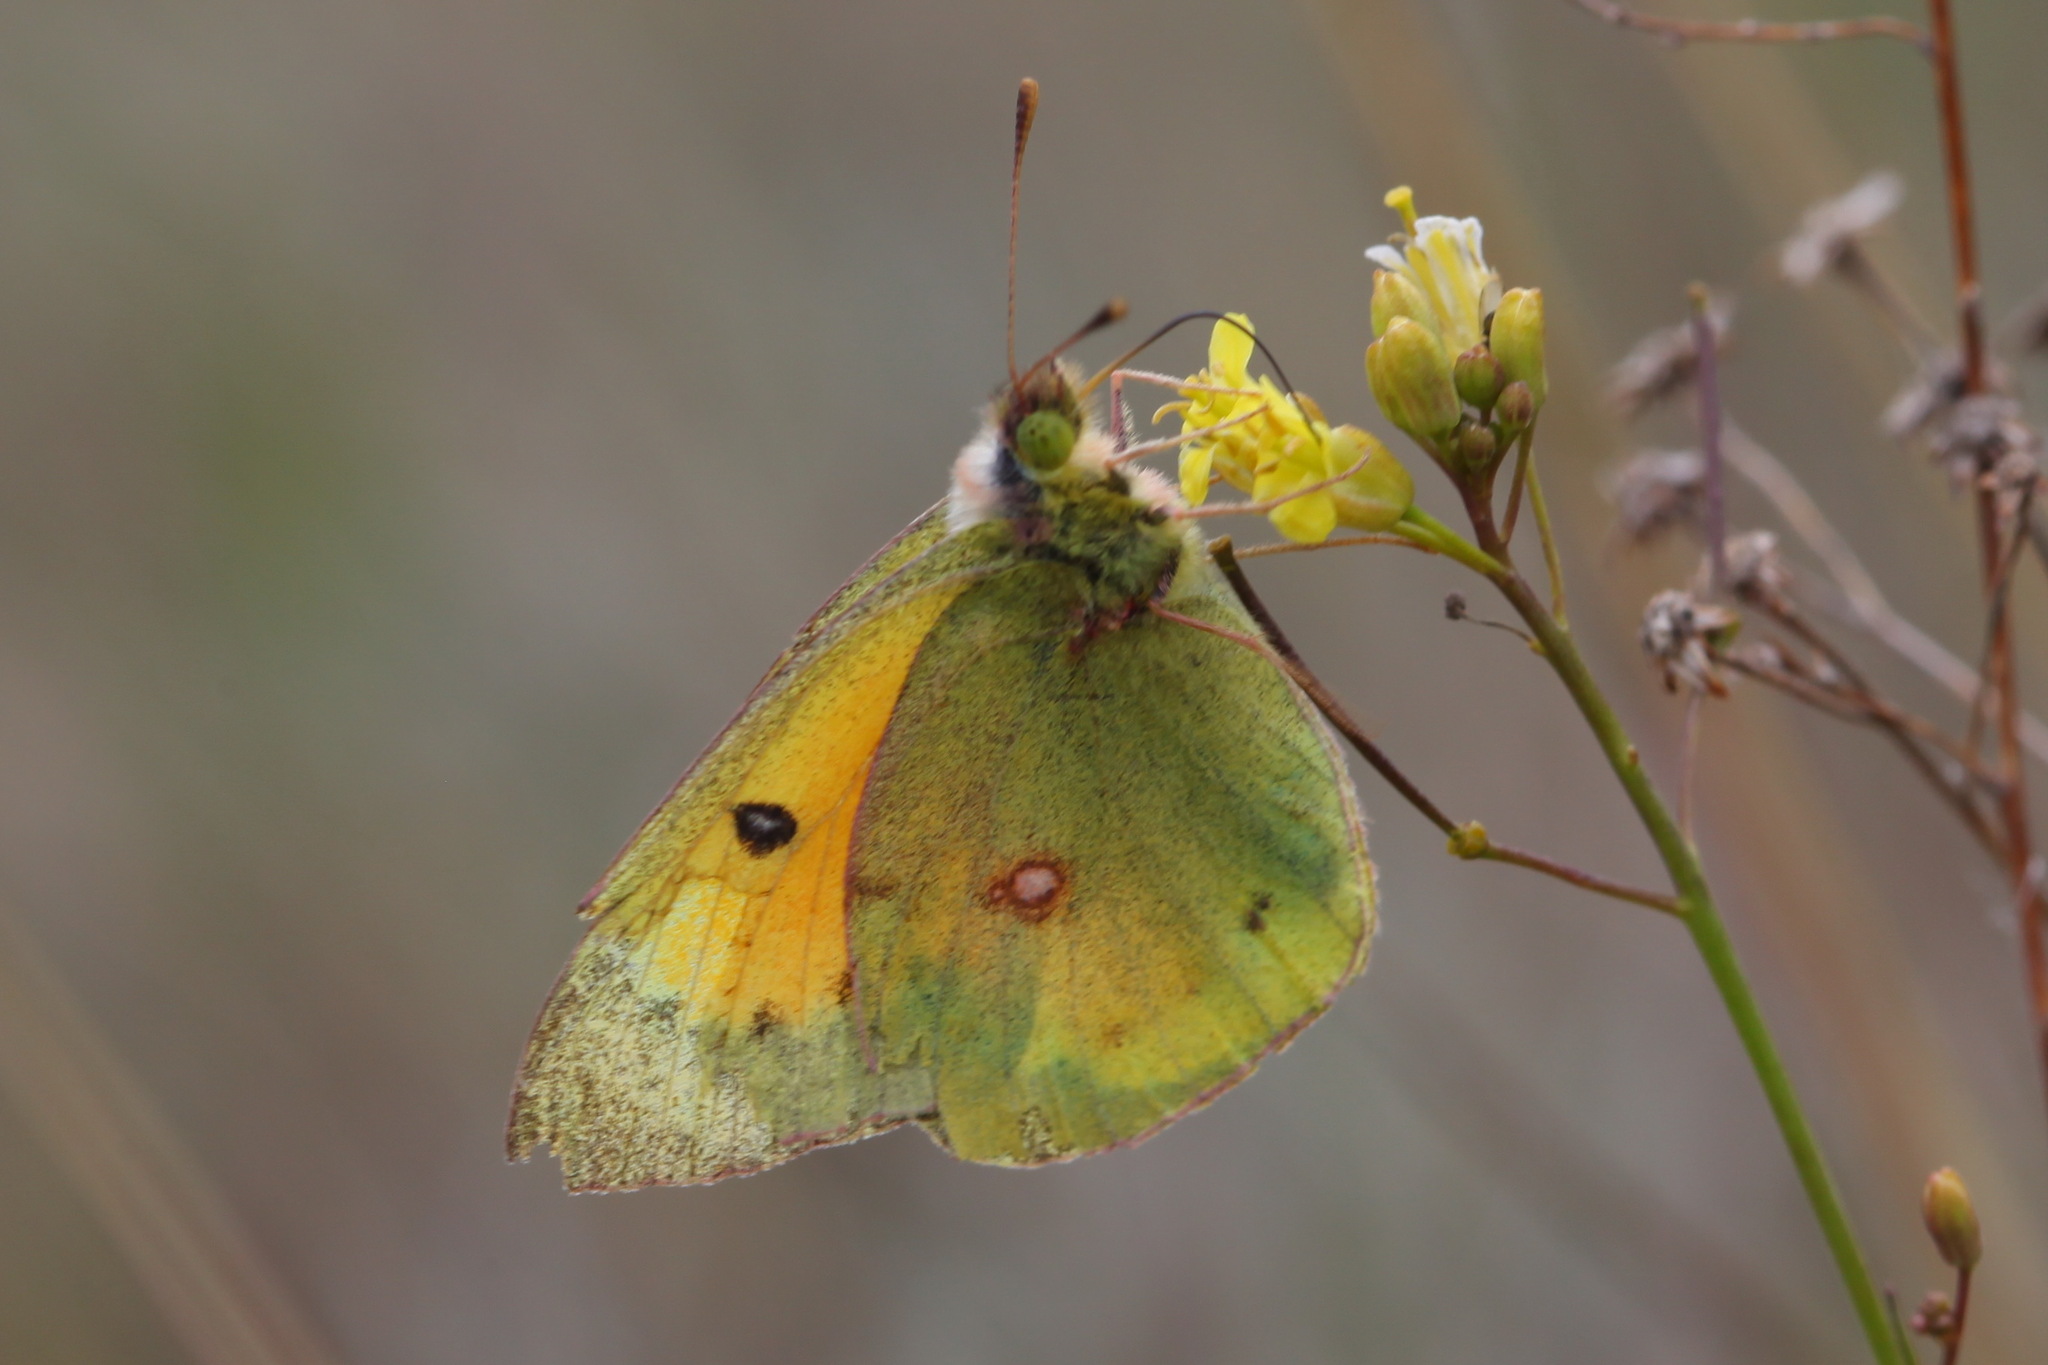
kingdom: Animalia
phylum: Arthropoda
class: Insecta
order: Lepidoptera
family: Pieridae
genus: Colias
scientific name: Colias chrysotheme
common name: Lesser clouded yellow
